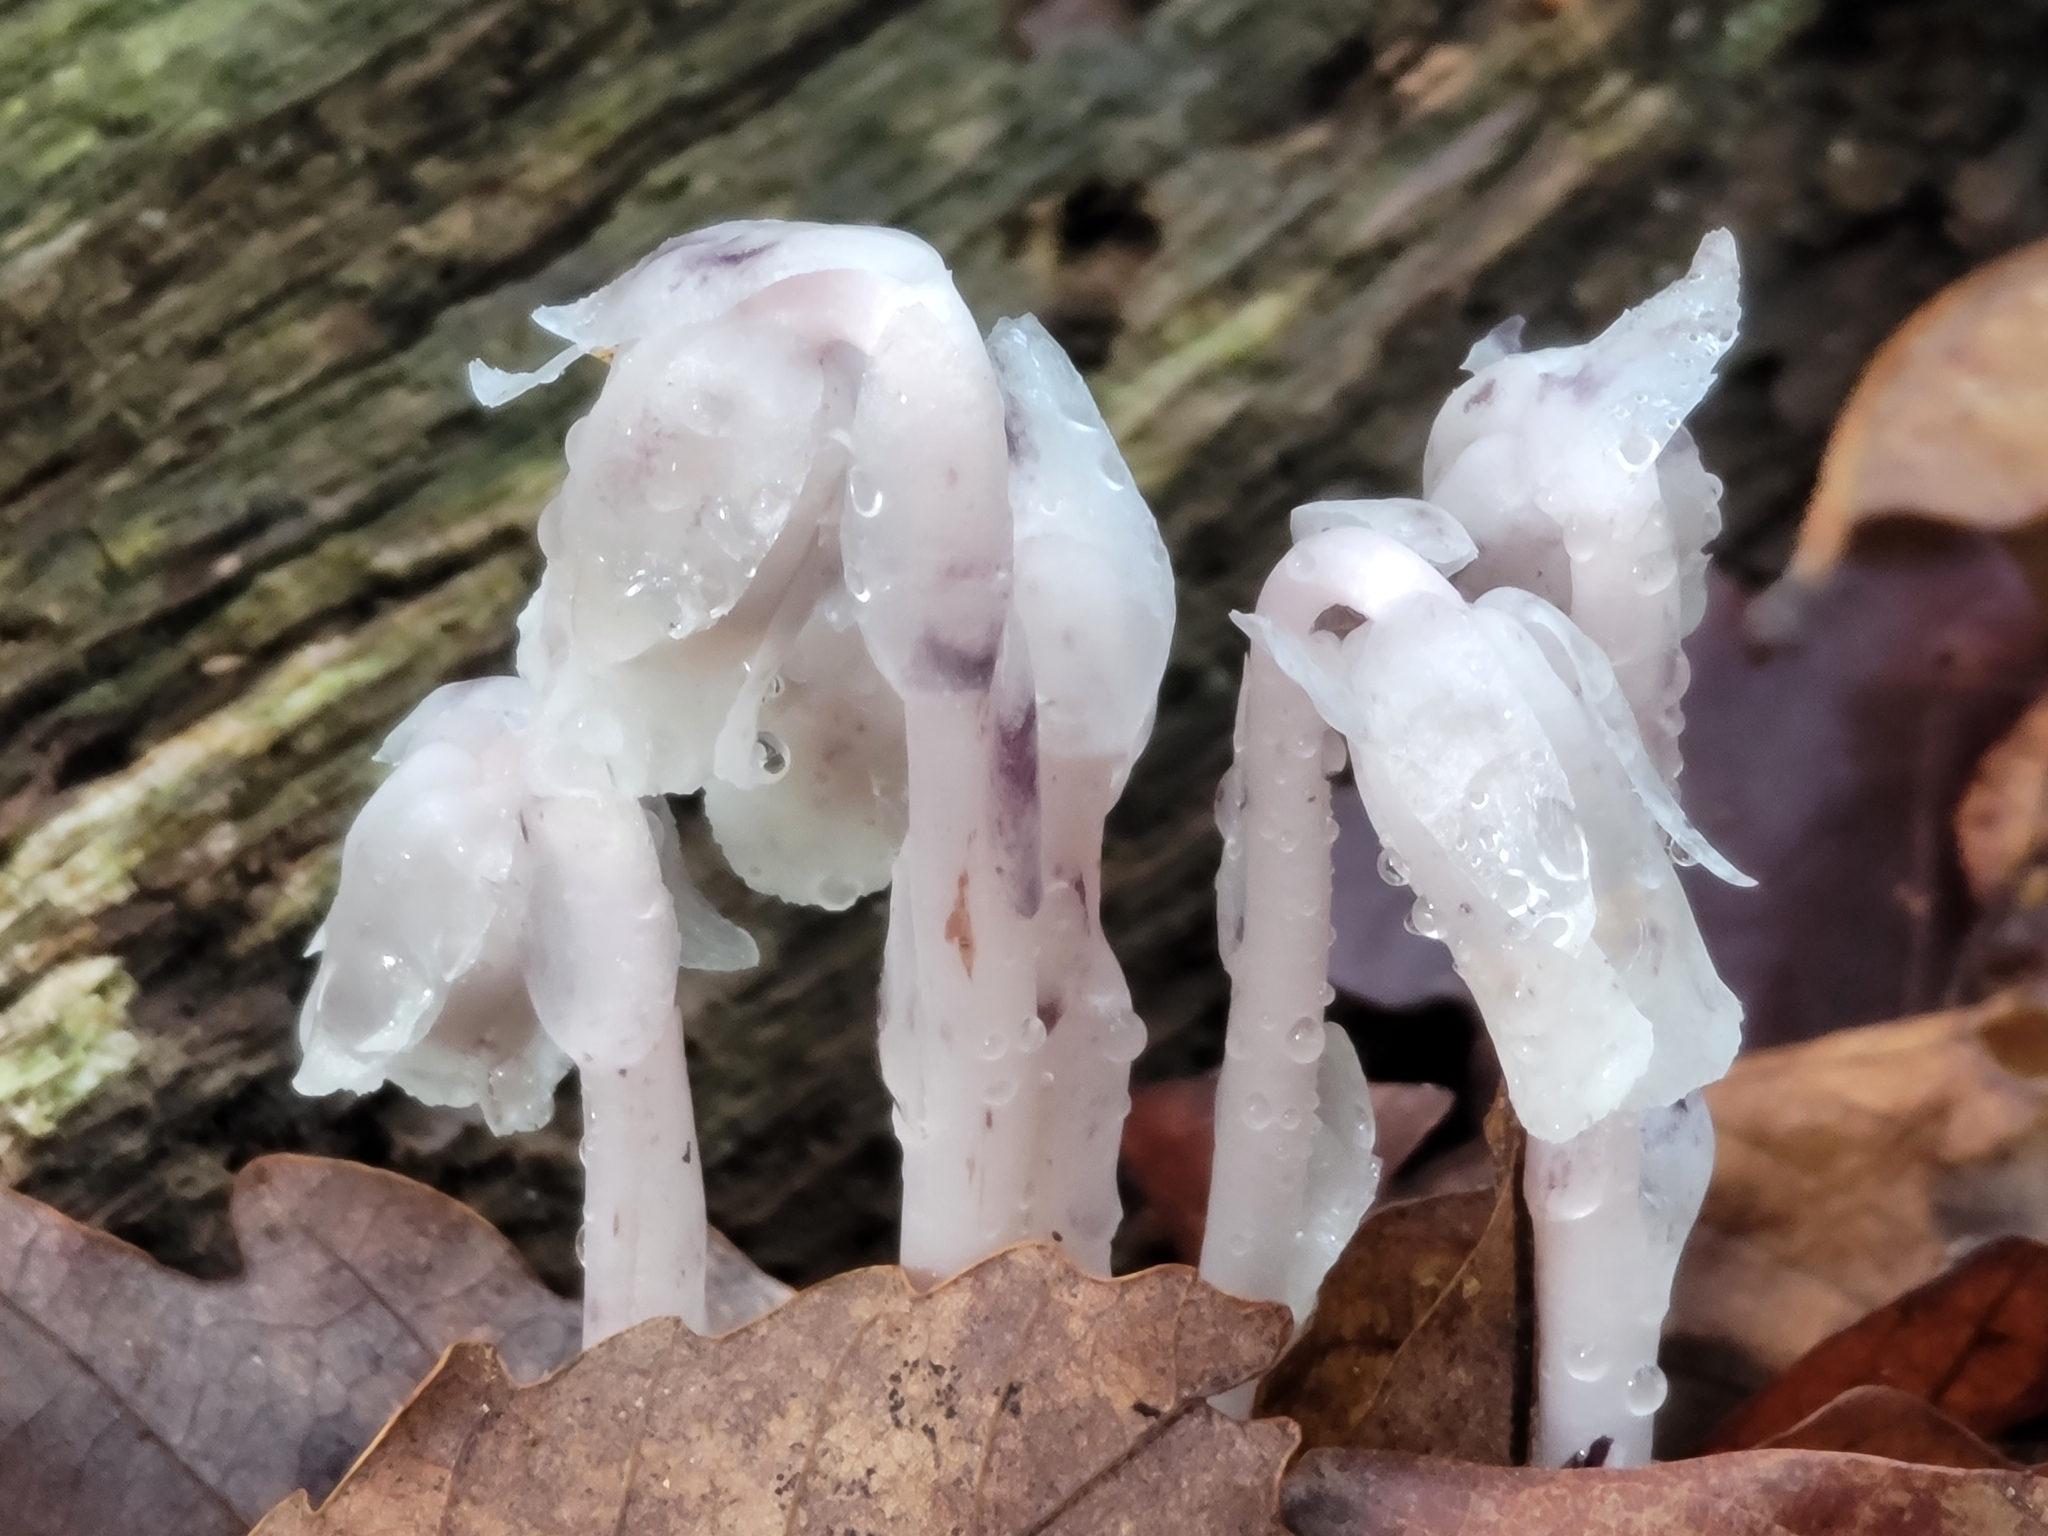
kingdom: Plantae
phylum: Tracheophyta
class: Magnoliopsida
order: Ericales
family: Ericaceae
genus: Monotropa
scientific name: Monotropa uniflora
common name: Convulsion root
